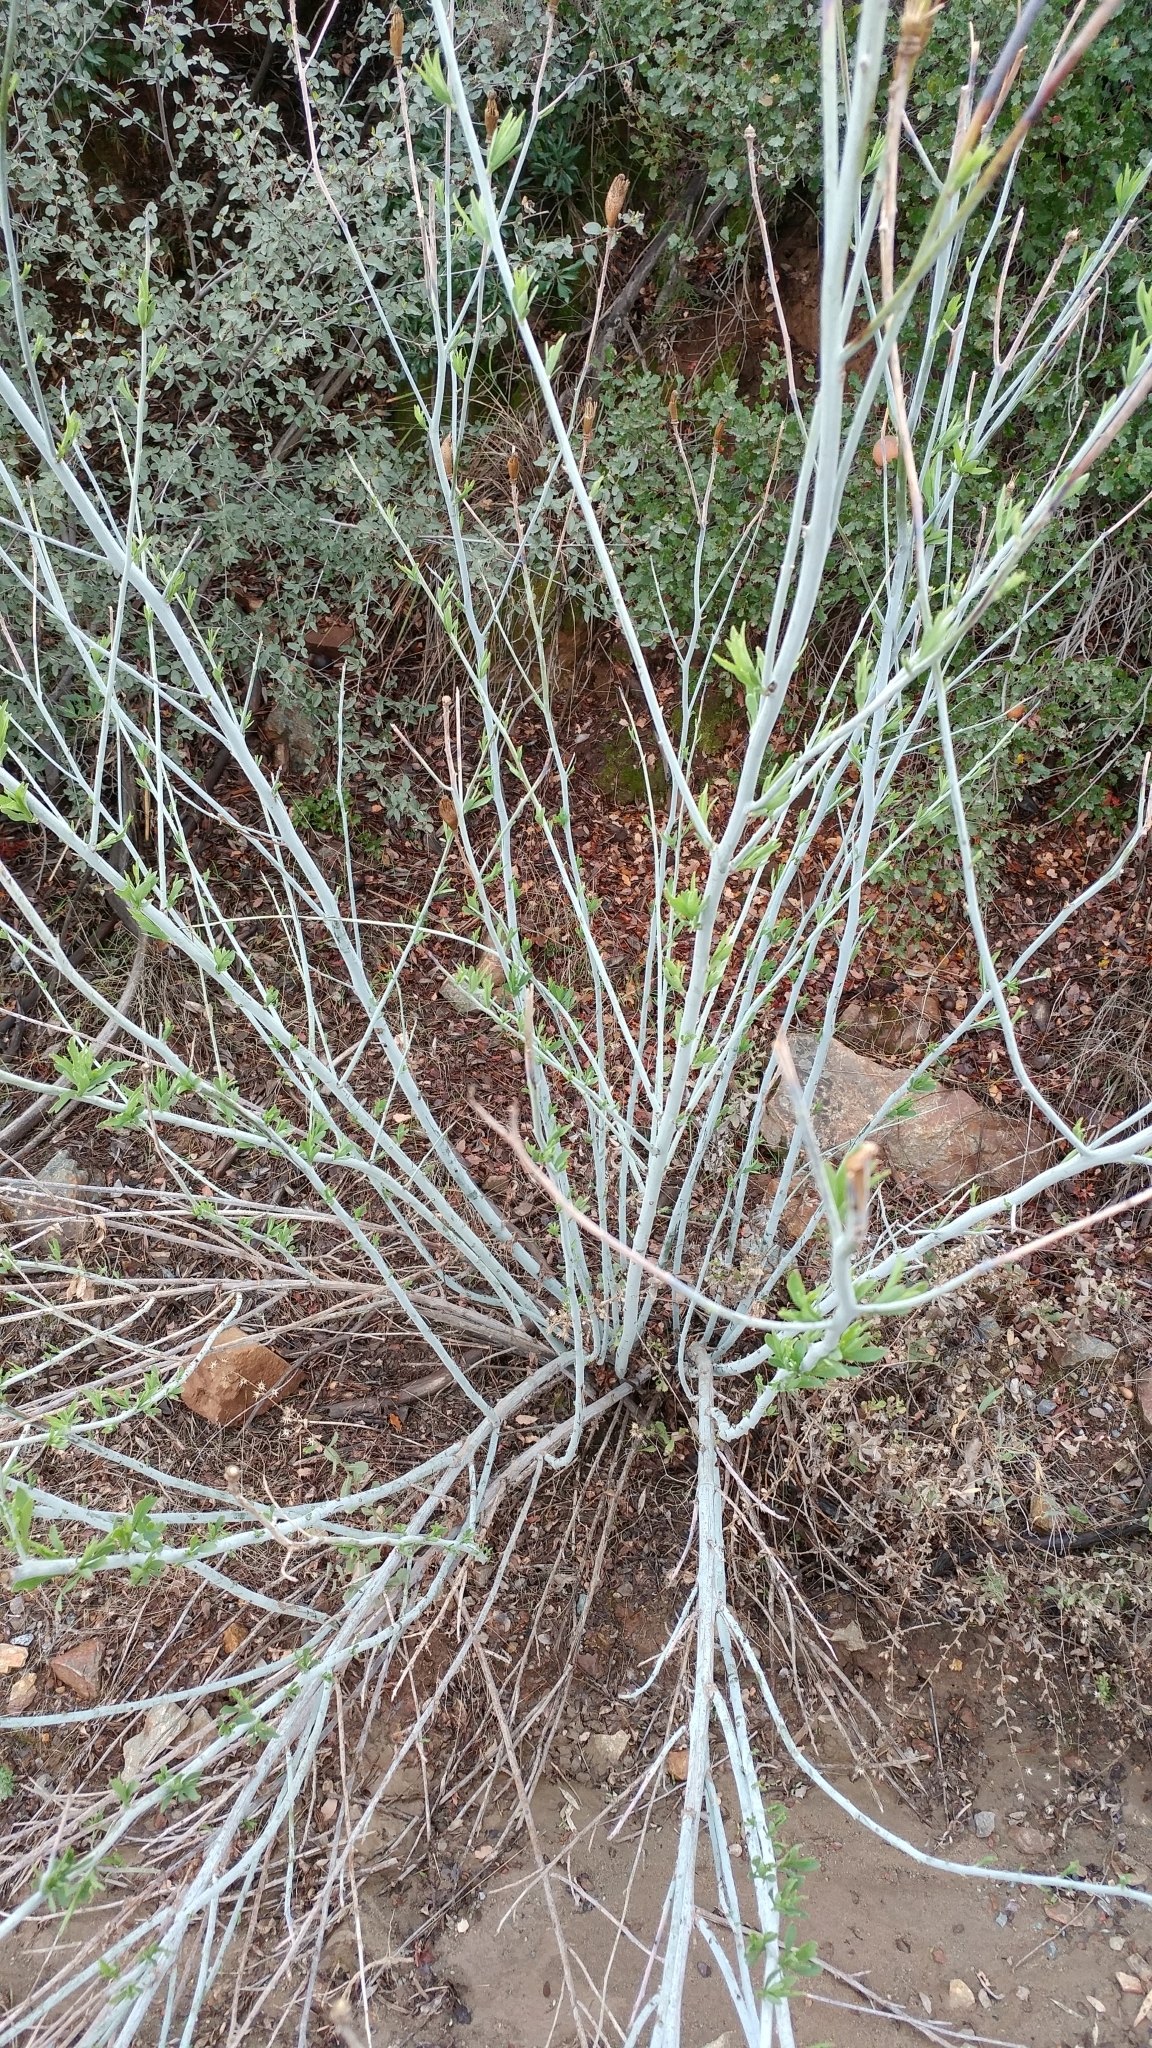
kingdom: Plantae
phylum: Tracheophyta
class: Magnoliopsida
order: Ranunculales
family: Papaveraceae
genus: Romneya
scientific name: Romneya trichocalyx
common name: Hairy matilija-poppy
